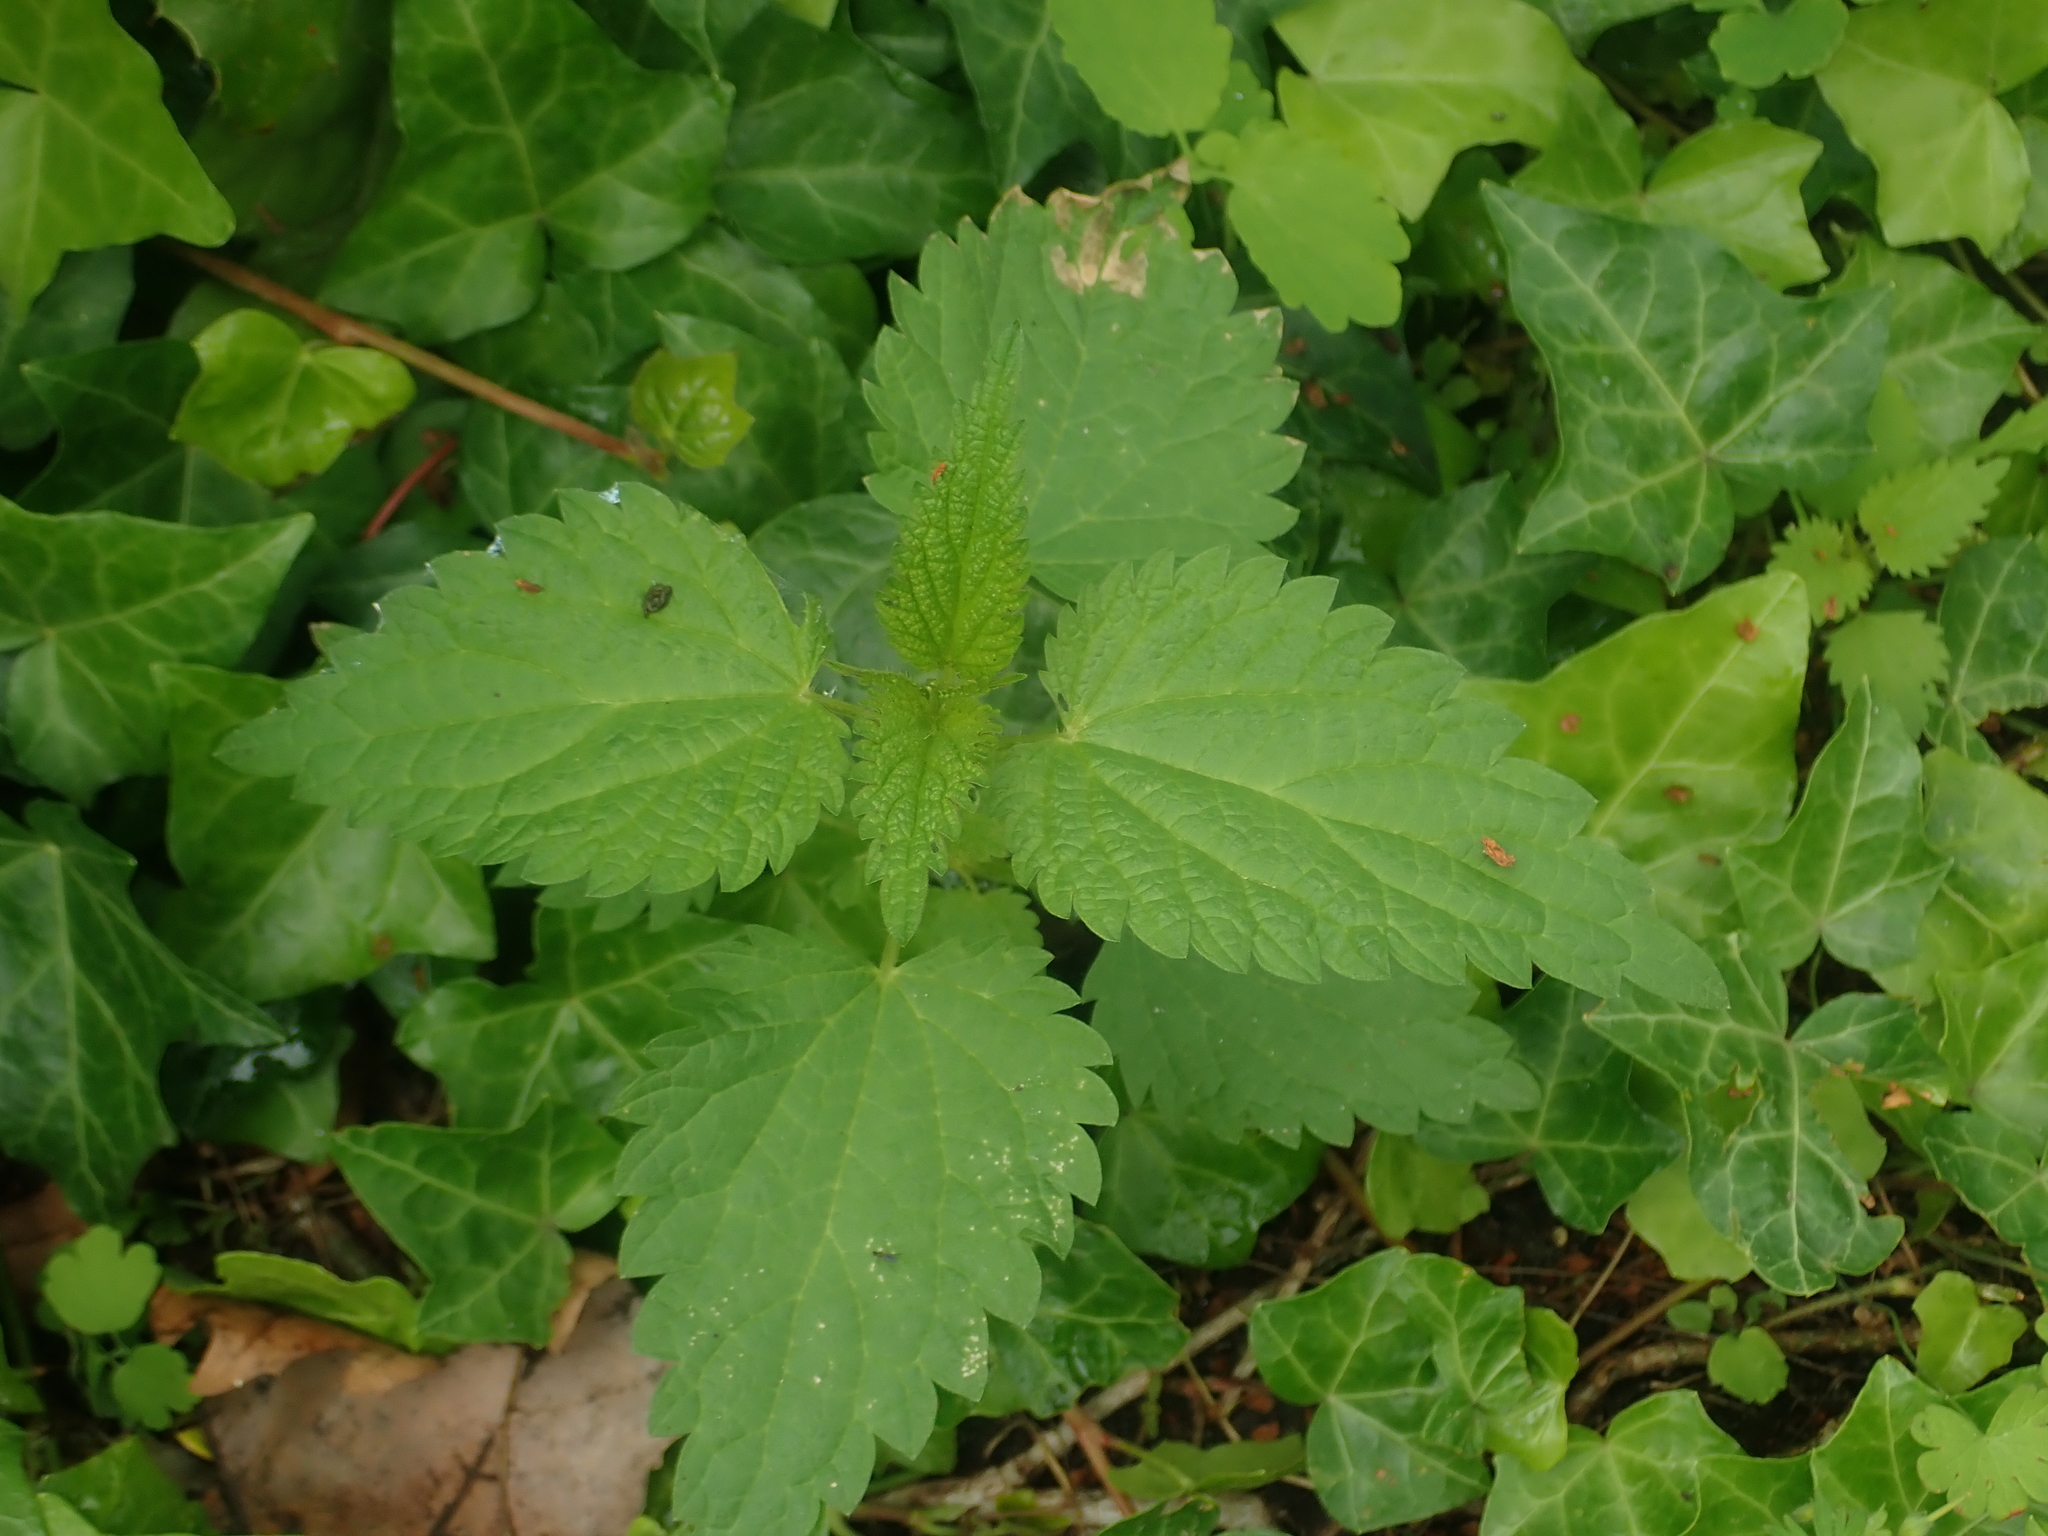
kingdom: Plantae
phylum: Tracheophyta
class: Magnoliopsida
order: Rosales
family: Urticaceae
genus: Urtica
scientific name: Urtica dioica
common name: Common nettle
